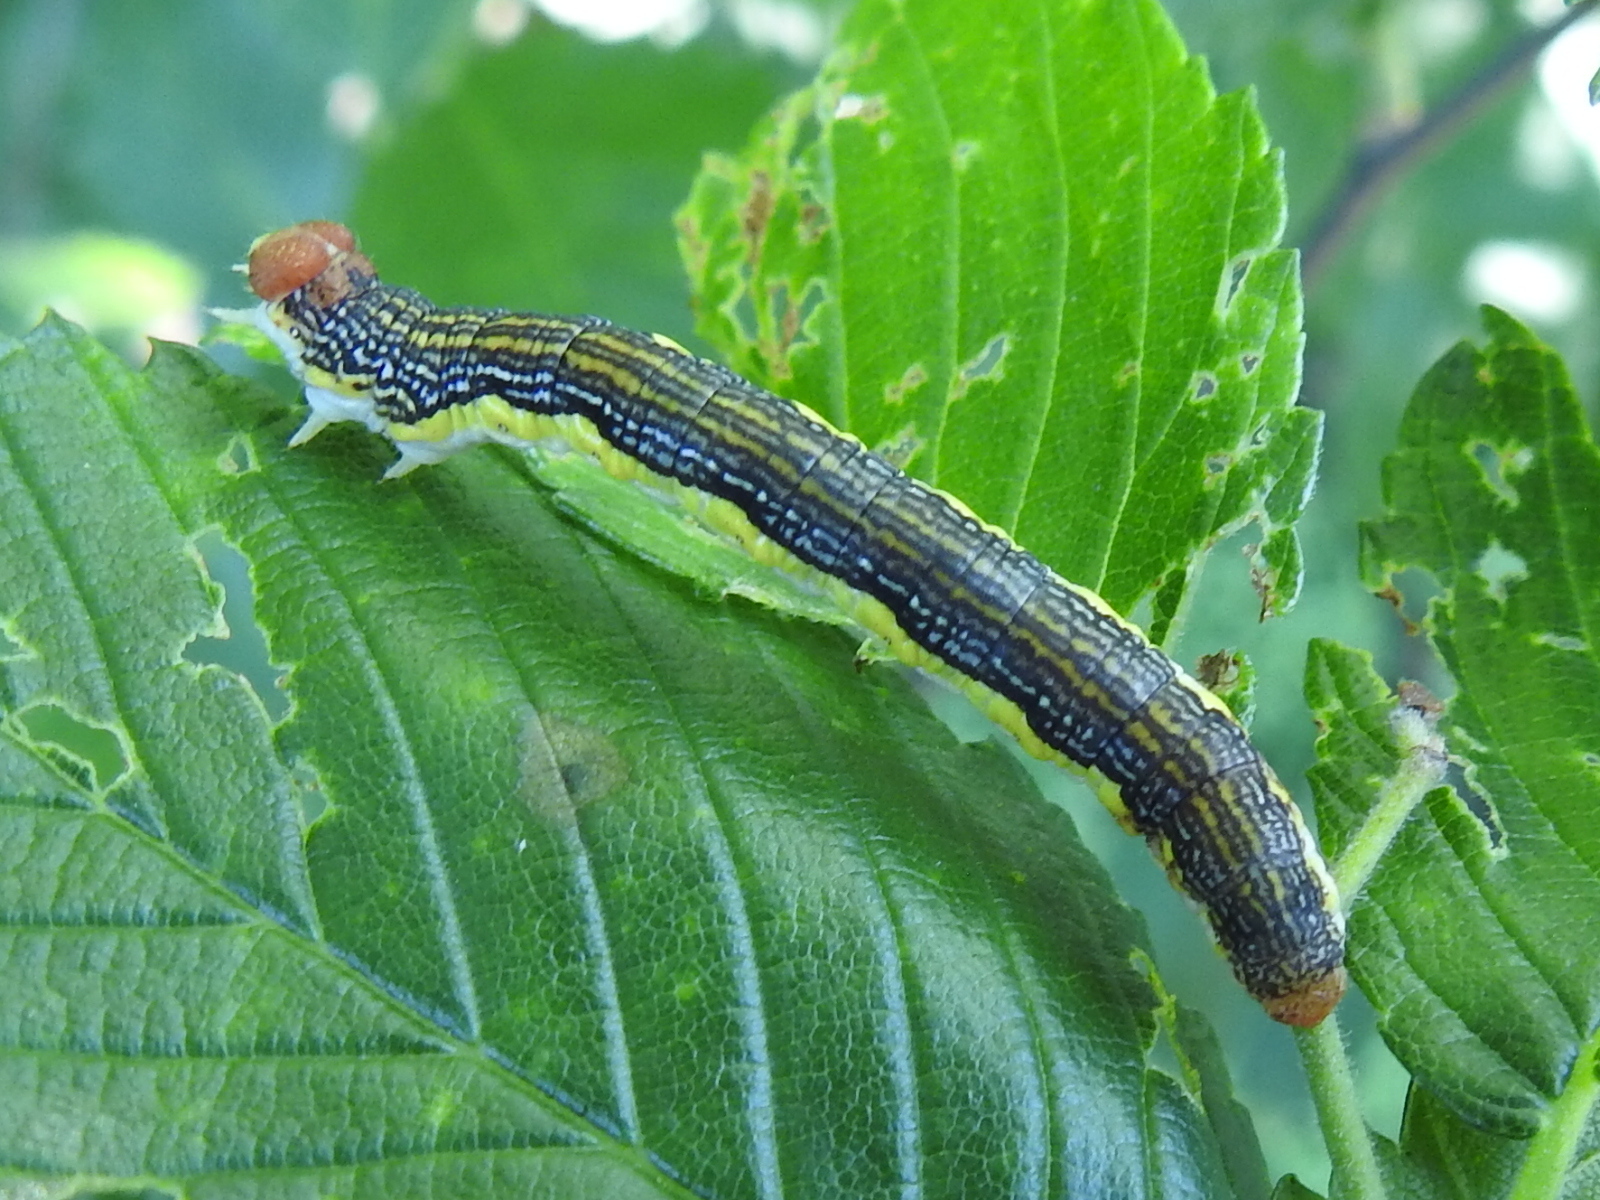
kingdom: Animalia
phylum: Arthropoda
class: Insecta
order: Lepidoptera
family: Geometridae
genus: Erannis
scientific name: Erannis tiliaria
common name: Linden looper
